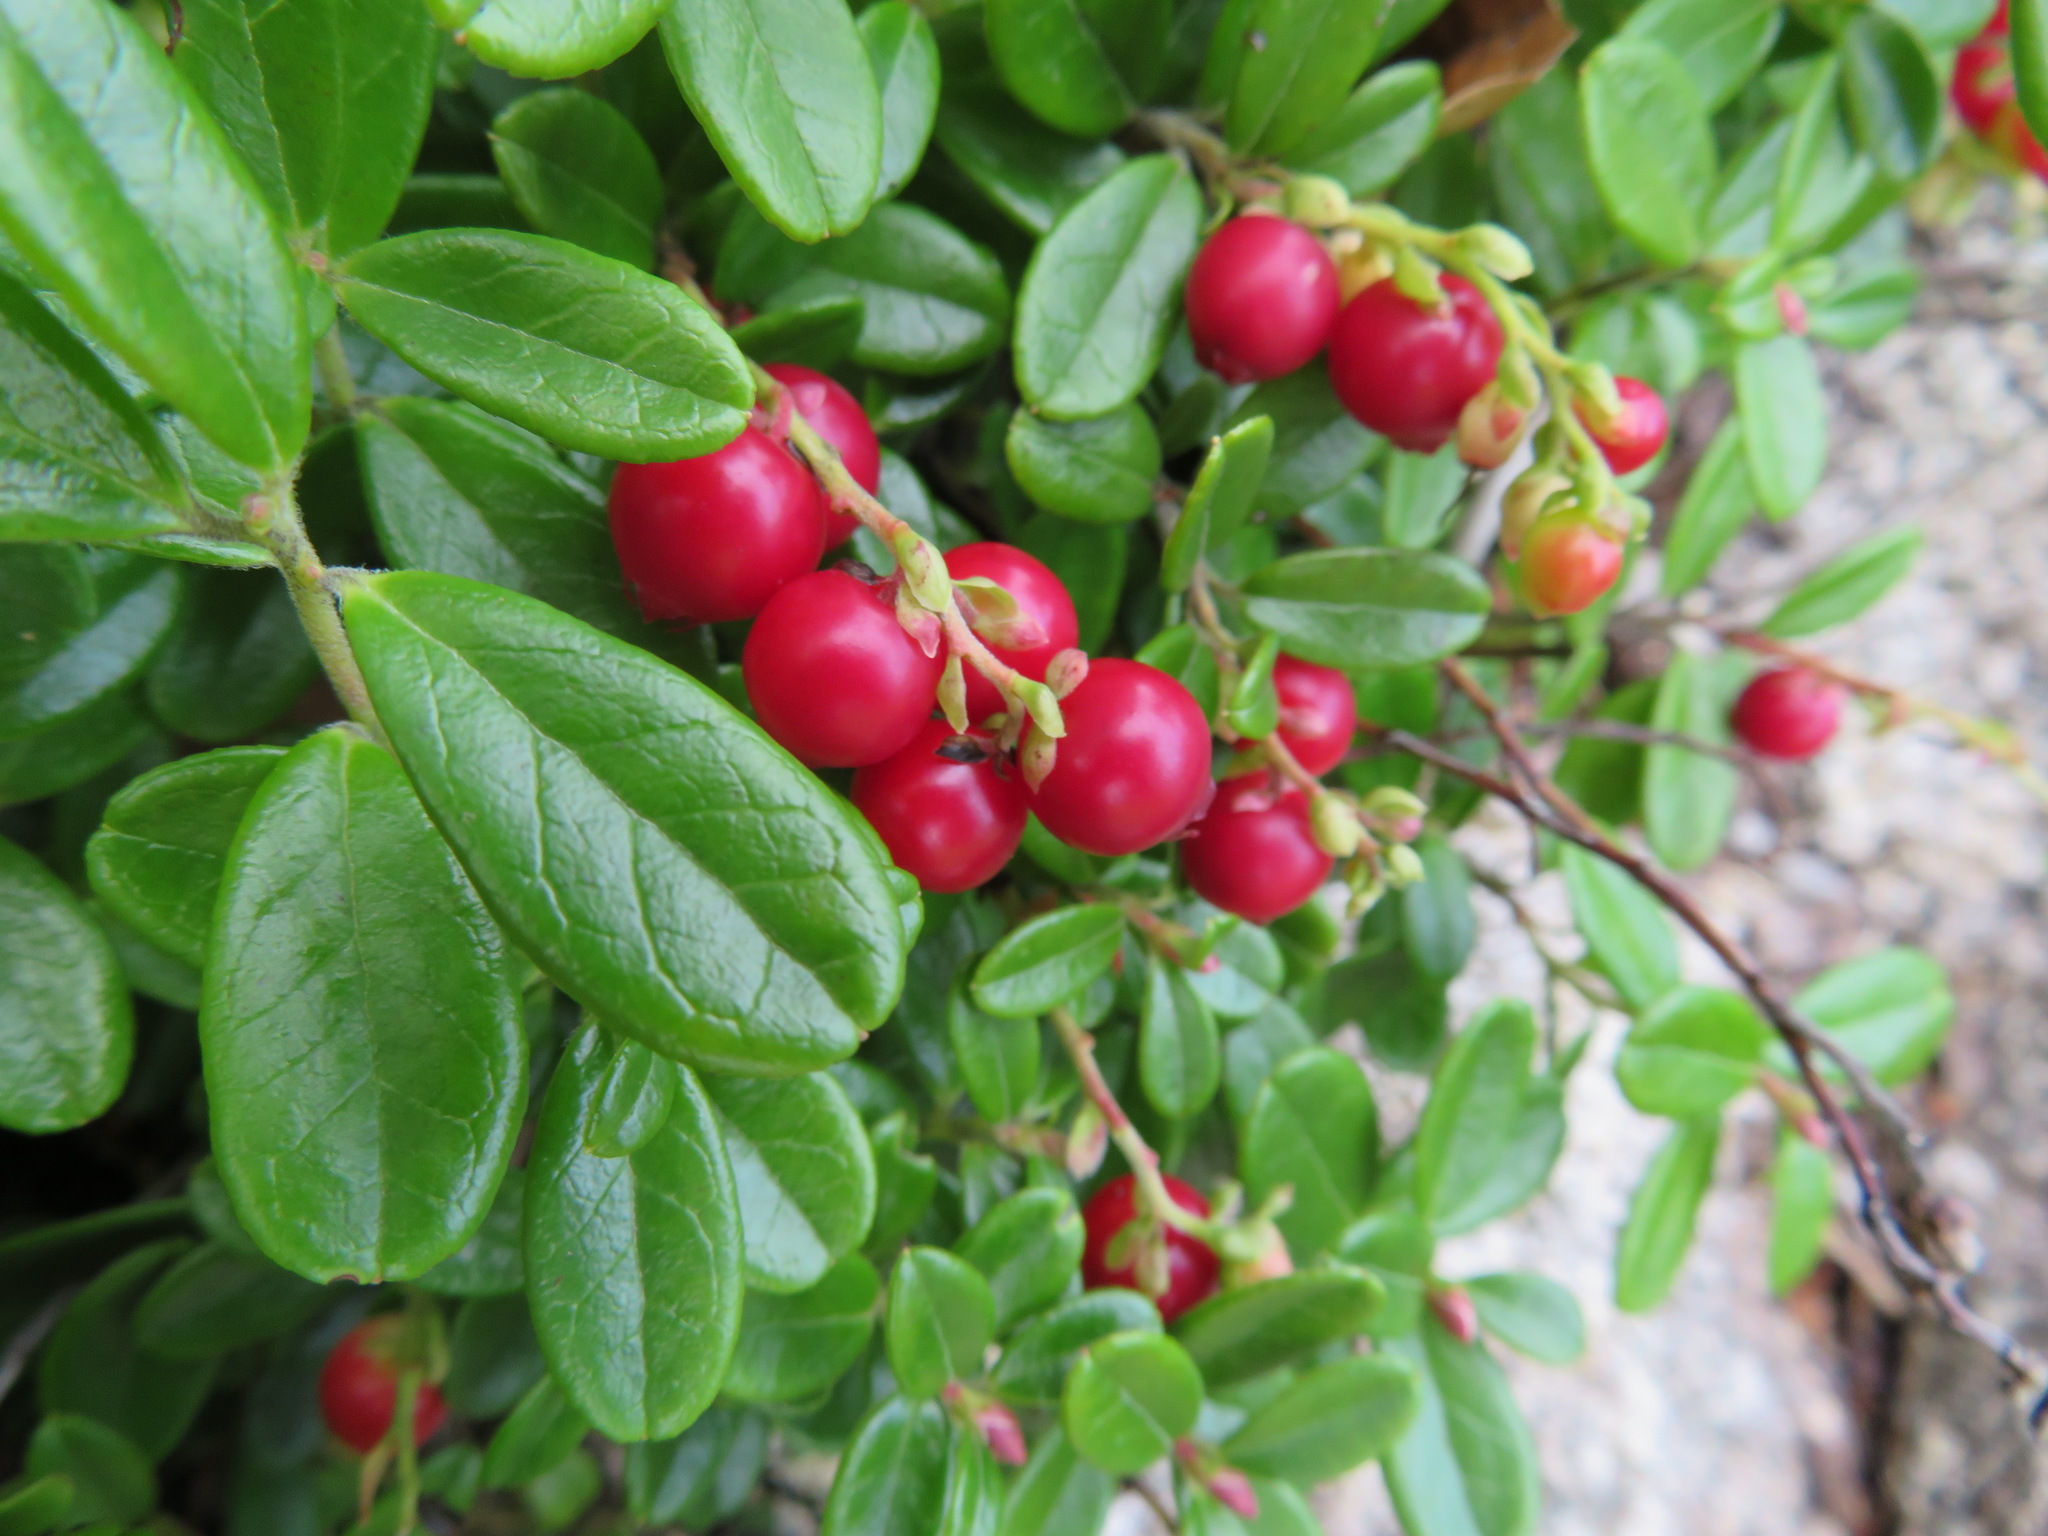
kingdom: Plantae
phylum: Tracheophyta
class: Magnoliopsida
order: Ericales
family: Ericaceae
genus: Vaccinium
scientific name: Vaccinium vitis-idaea
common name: Cowberry
